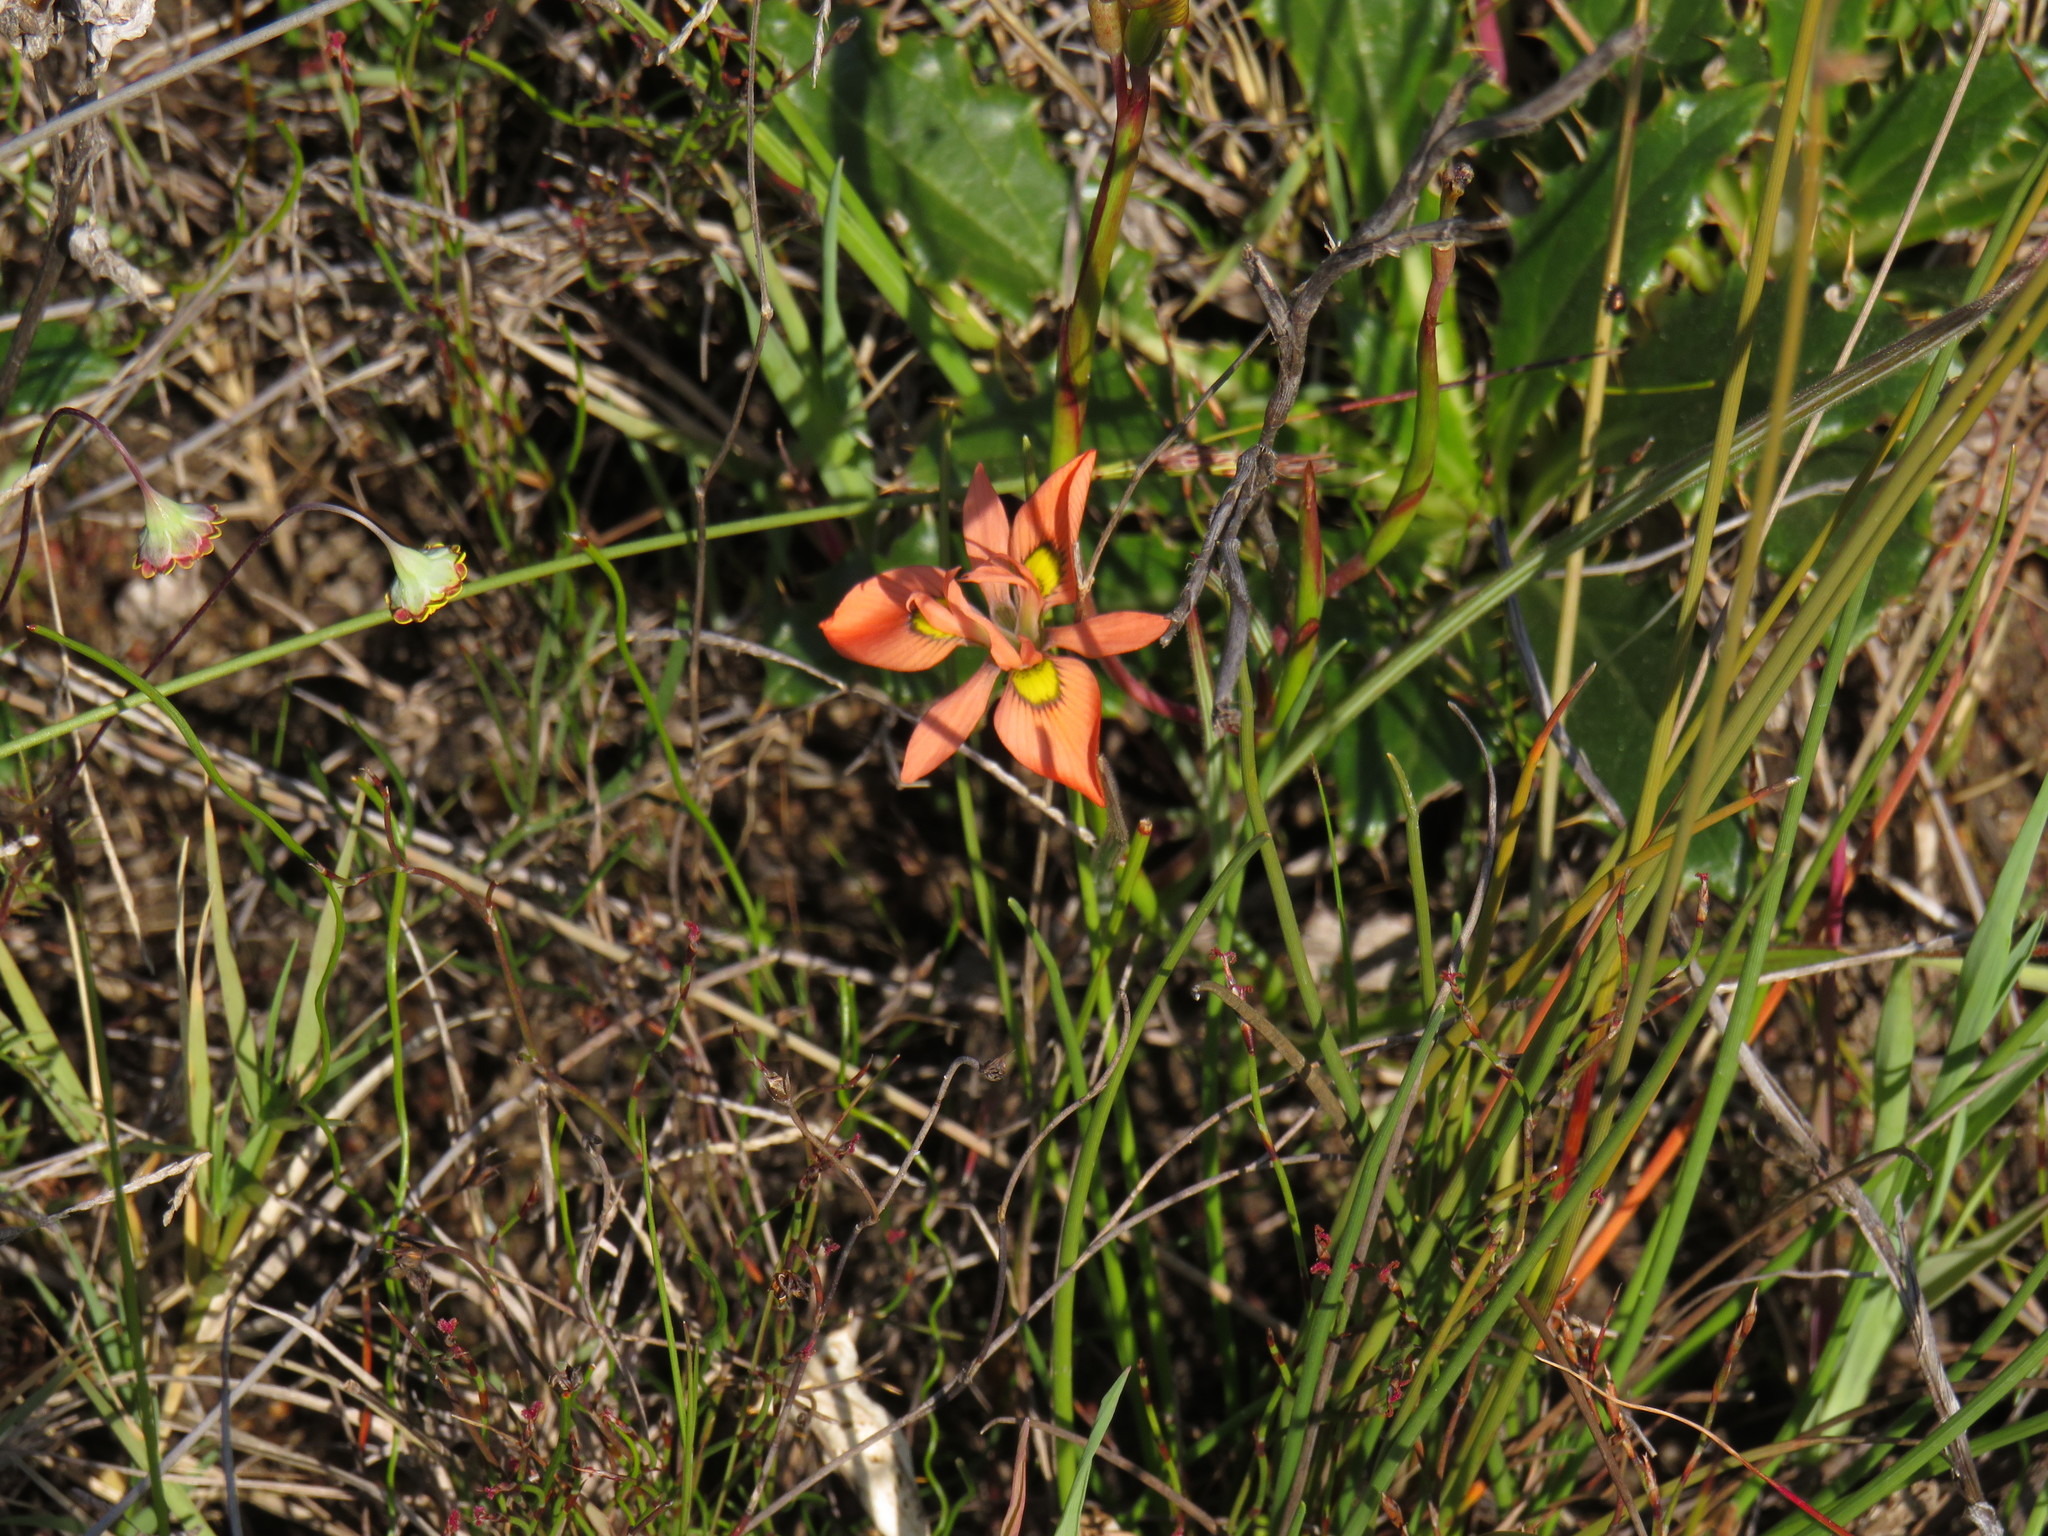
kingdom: Plantae
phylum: Tracheophyta
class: Liliopsida
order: Asparagales
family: Iridaceae
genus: Moraea
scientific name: Moraea papilionacea
